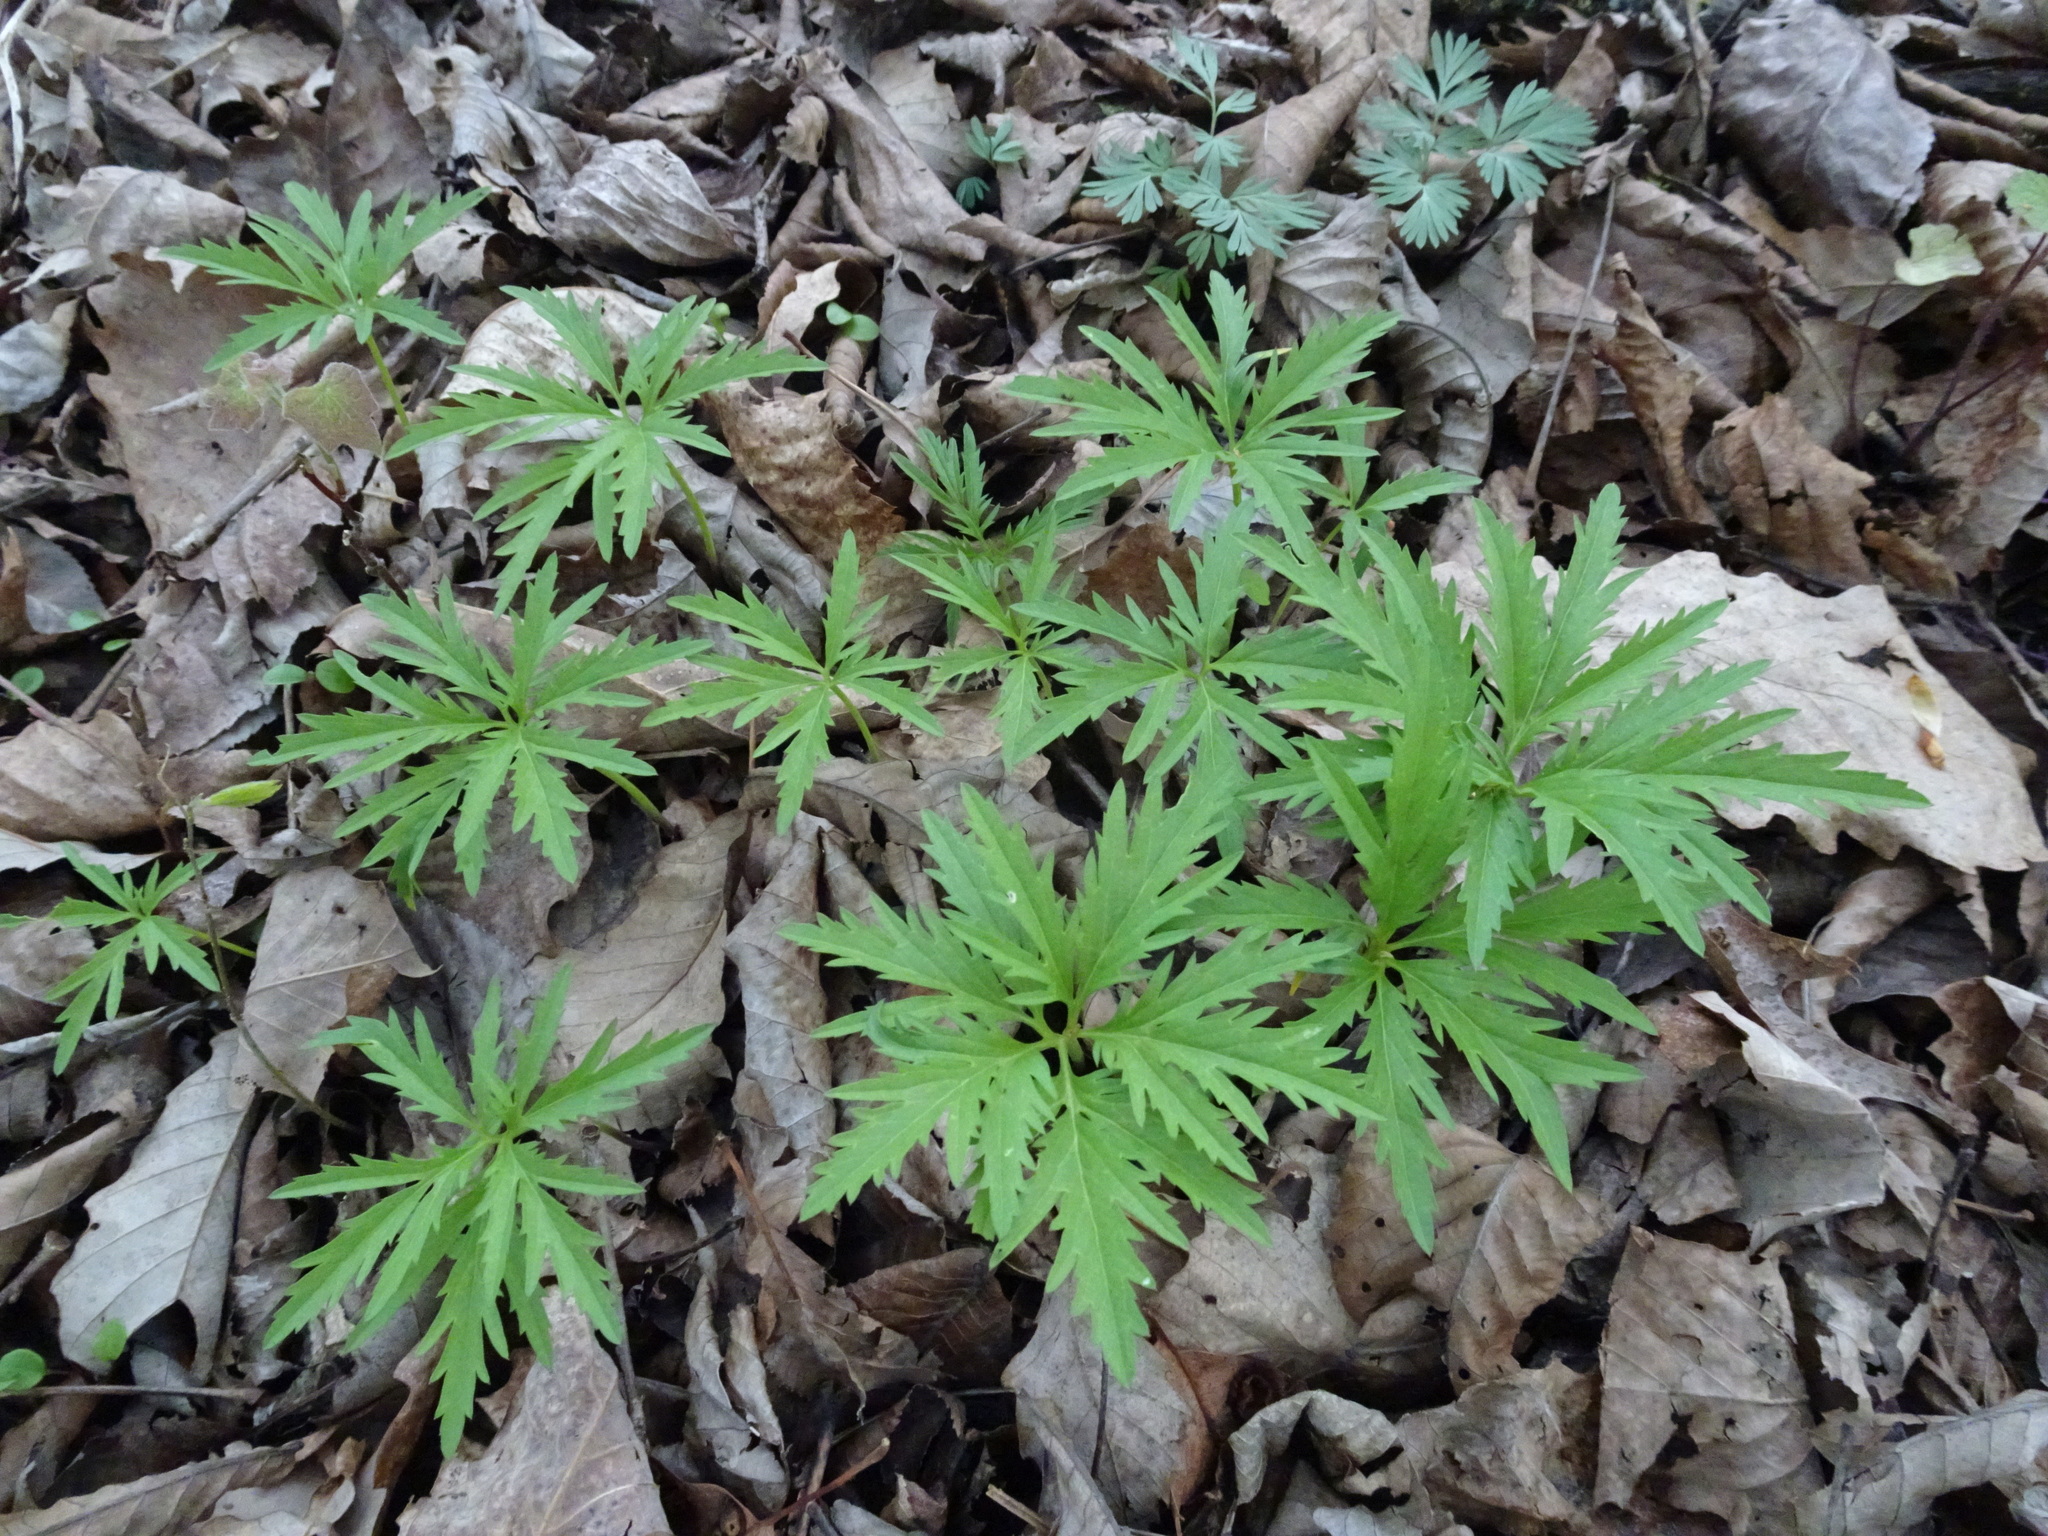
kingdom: Plantae
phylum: Tracheophyta
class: Magnoliopsida
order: Brassicales
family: Brassicaceae
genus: Cardamine
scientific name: Cardamine concatenata
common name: Cut-leaf toothcup
